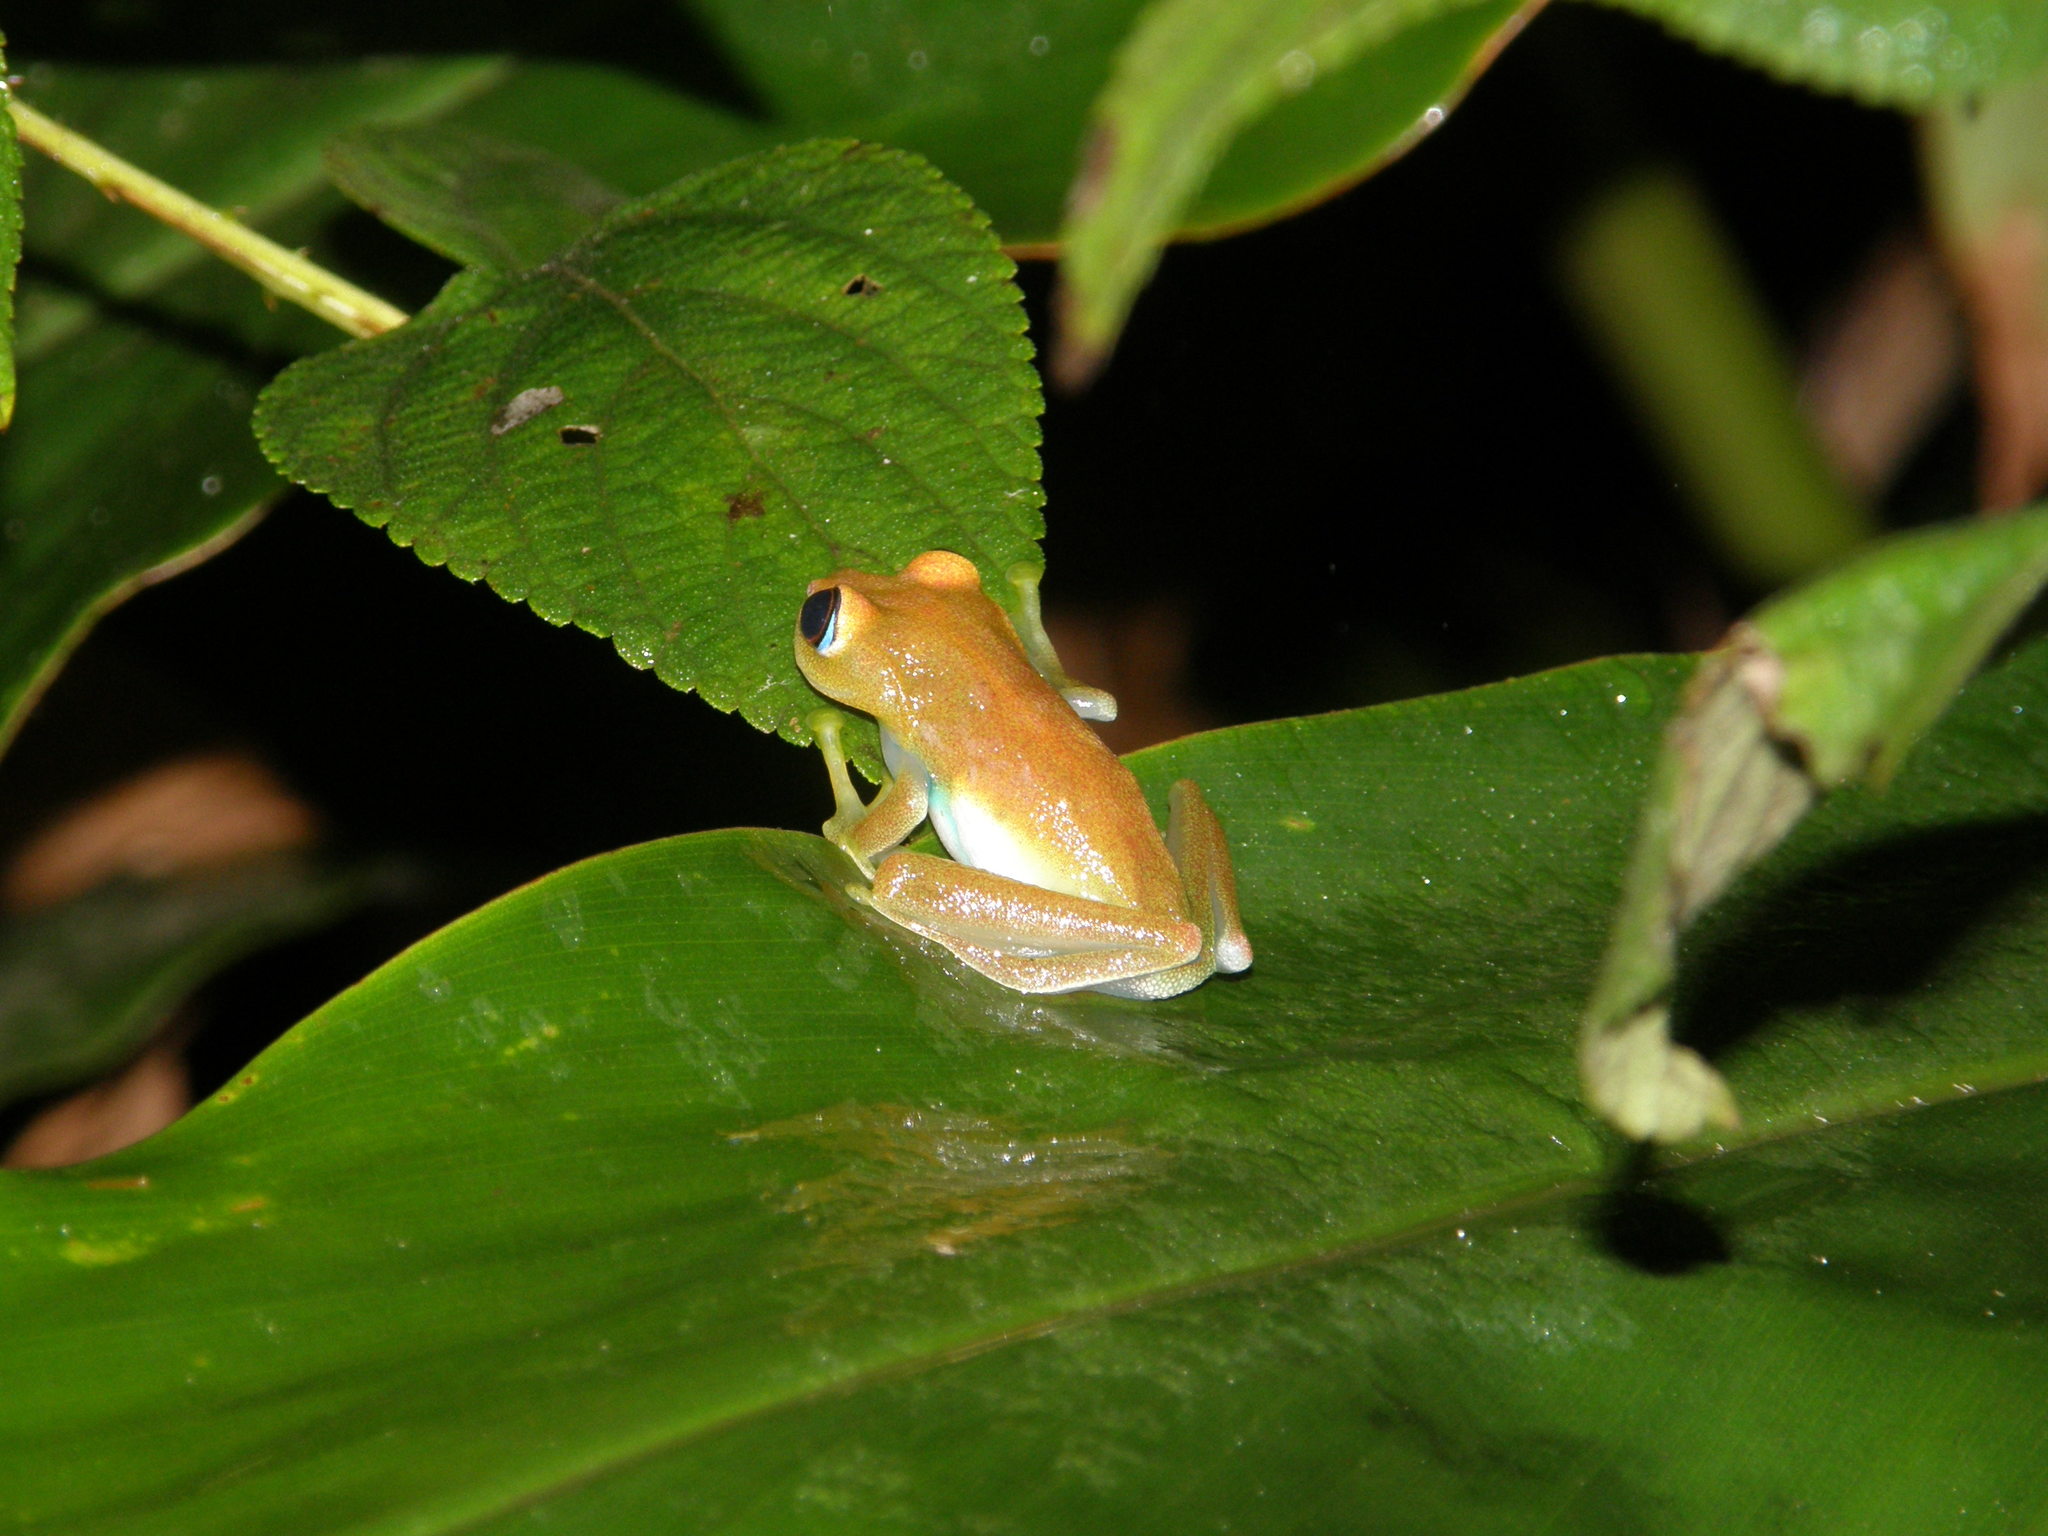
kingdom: Animalia
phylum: Chordata
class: Amphibia
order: Anura
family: Mantellidae
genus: Boophis
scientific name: Boophis viridis
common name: Green bright-eyed frog
